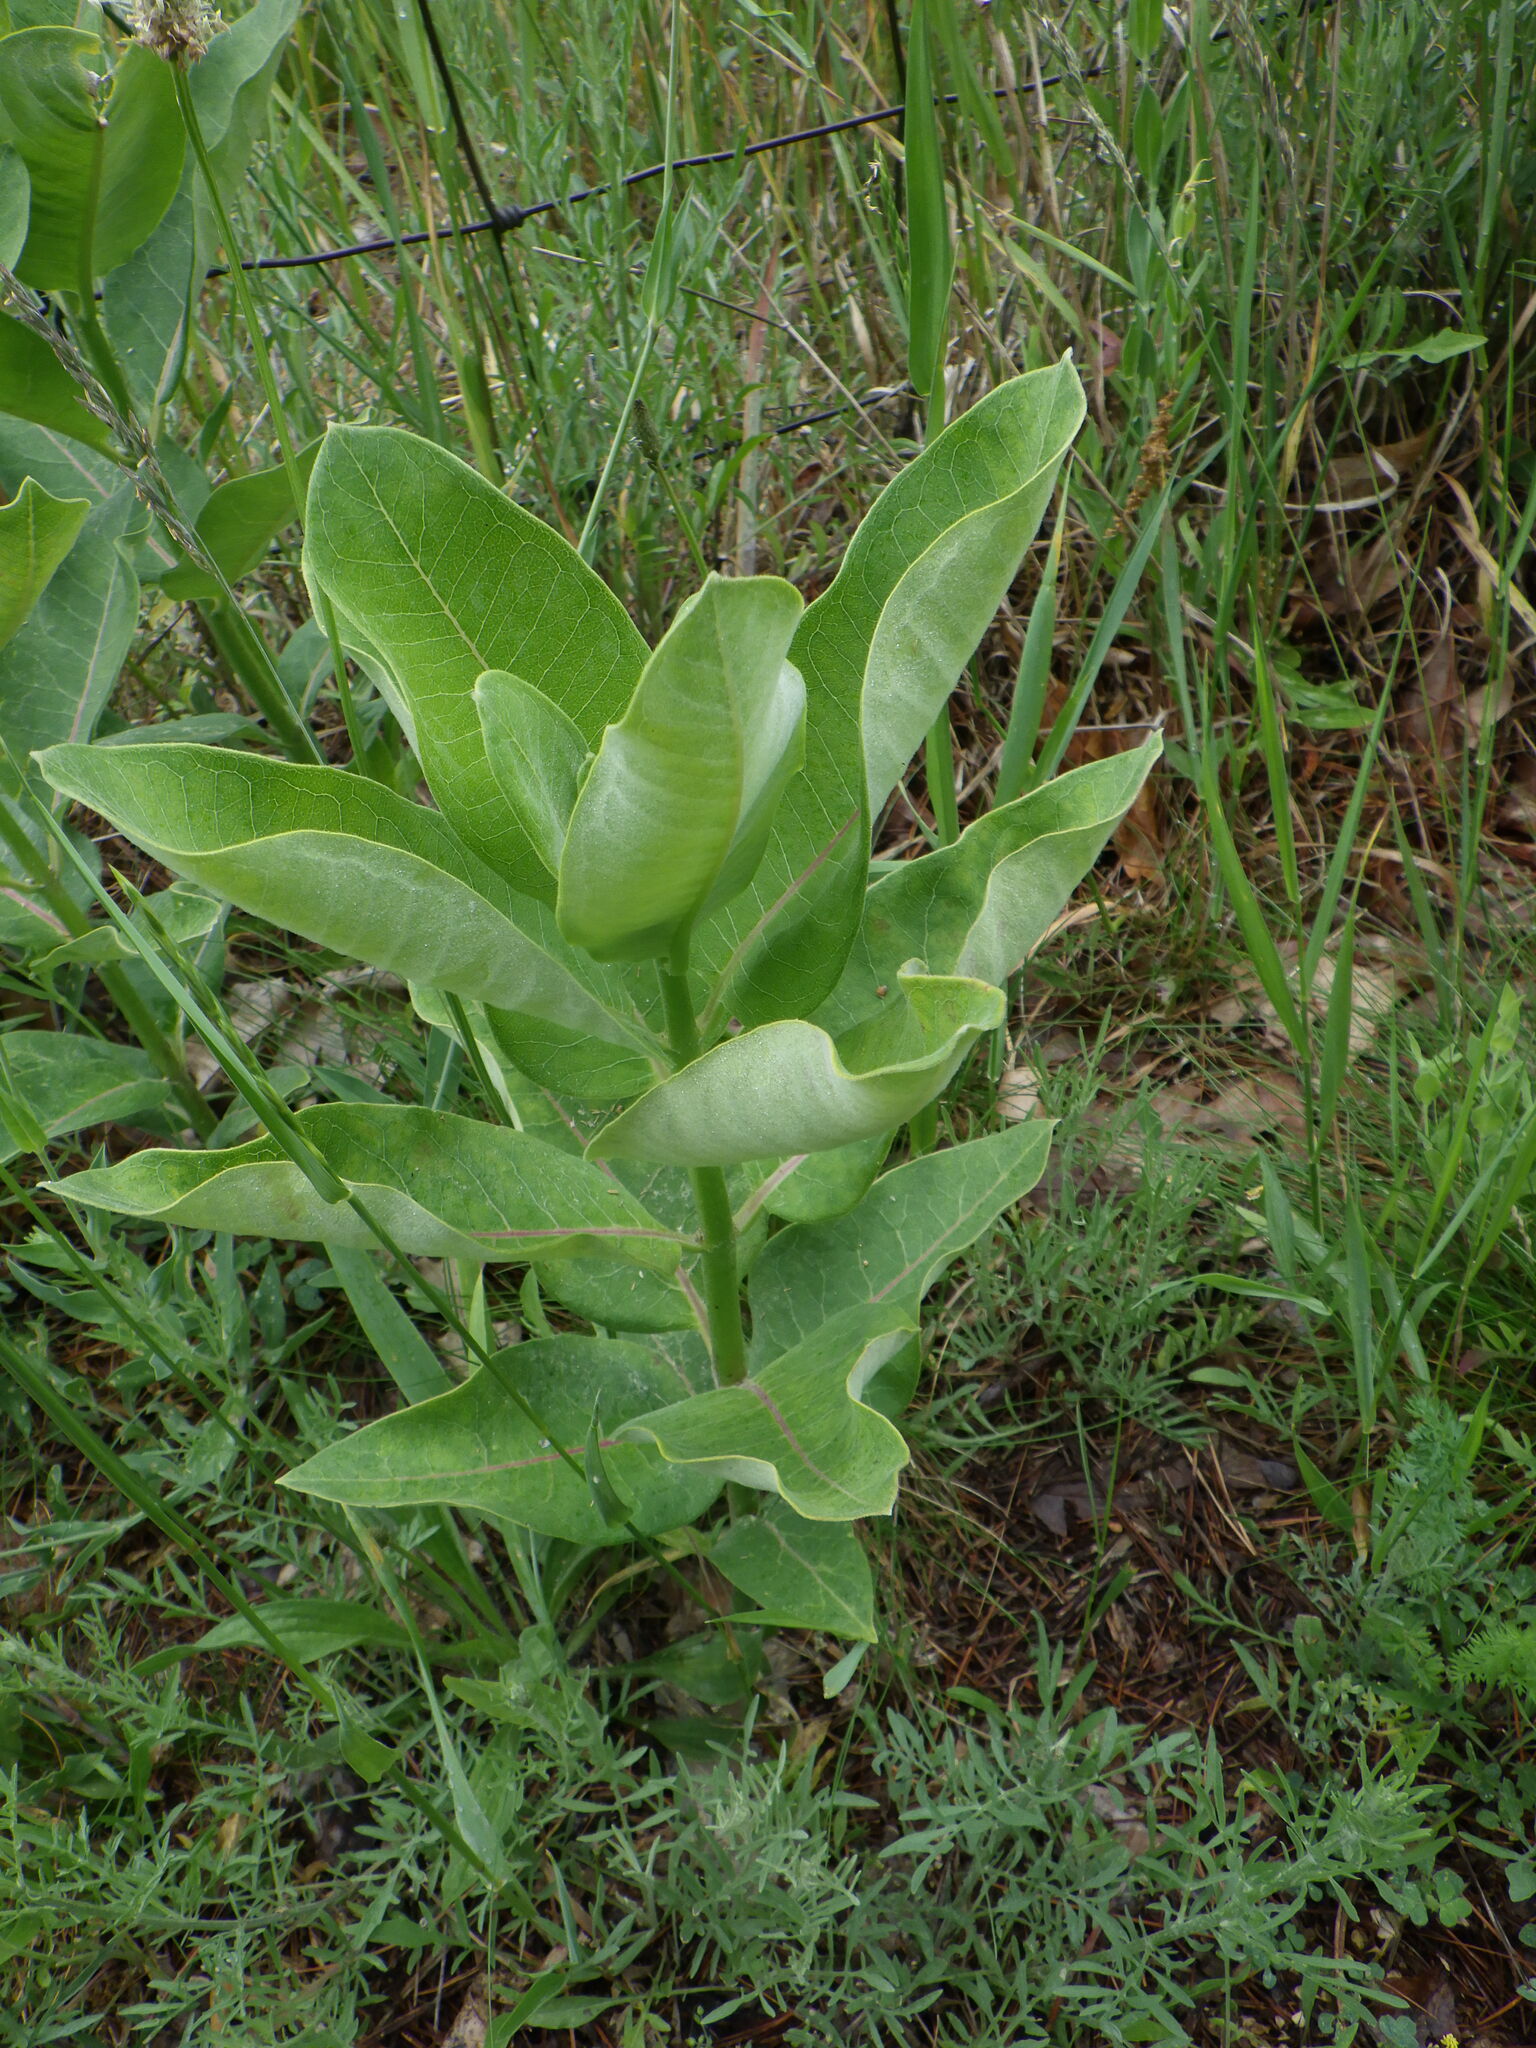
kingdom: Plantae
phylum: Tracheophyta
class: Magnoliopsida
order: Gentianales
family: Apocynaceae
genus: Asclepias
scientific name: Asclepias syriaca
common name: Common milkweed
